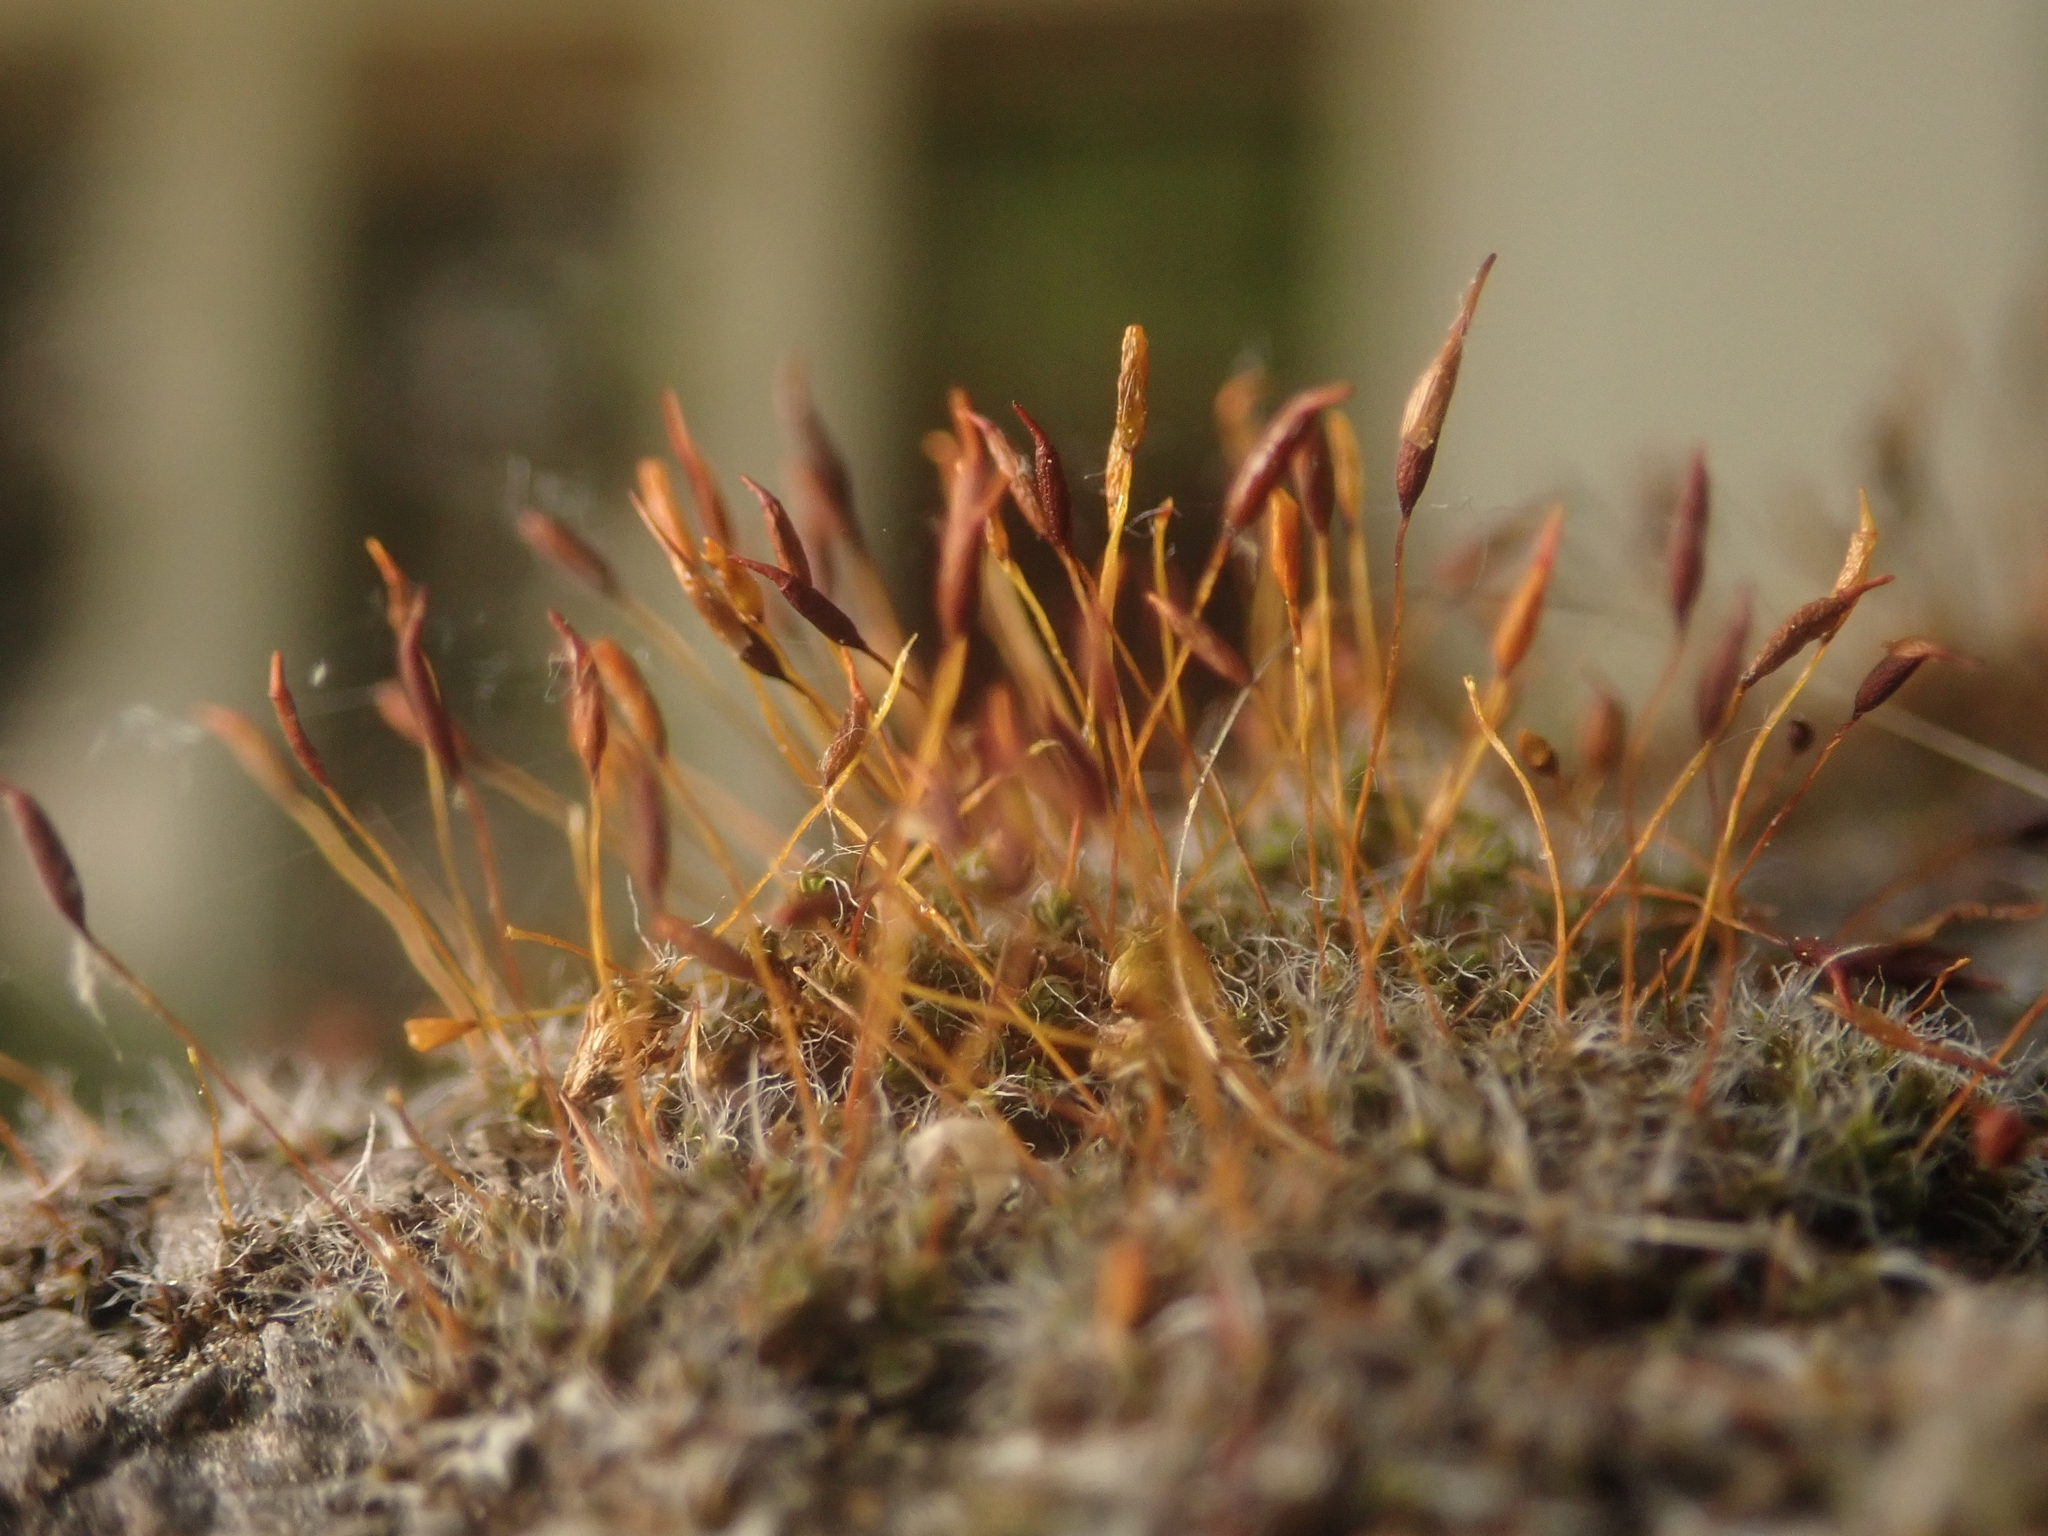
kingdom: Plantae
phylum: Bryophyta
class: Bryopsida
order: Pottiales
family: Pottiaceae
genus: Tortula
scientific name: Tortula muralis
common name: Wall screw-moss
